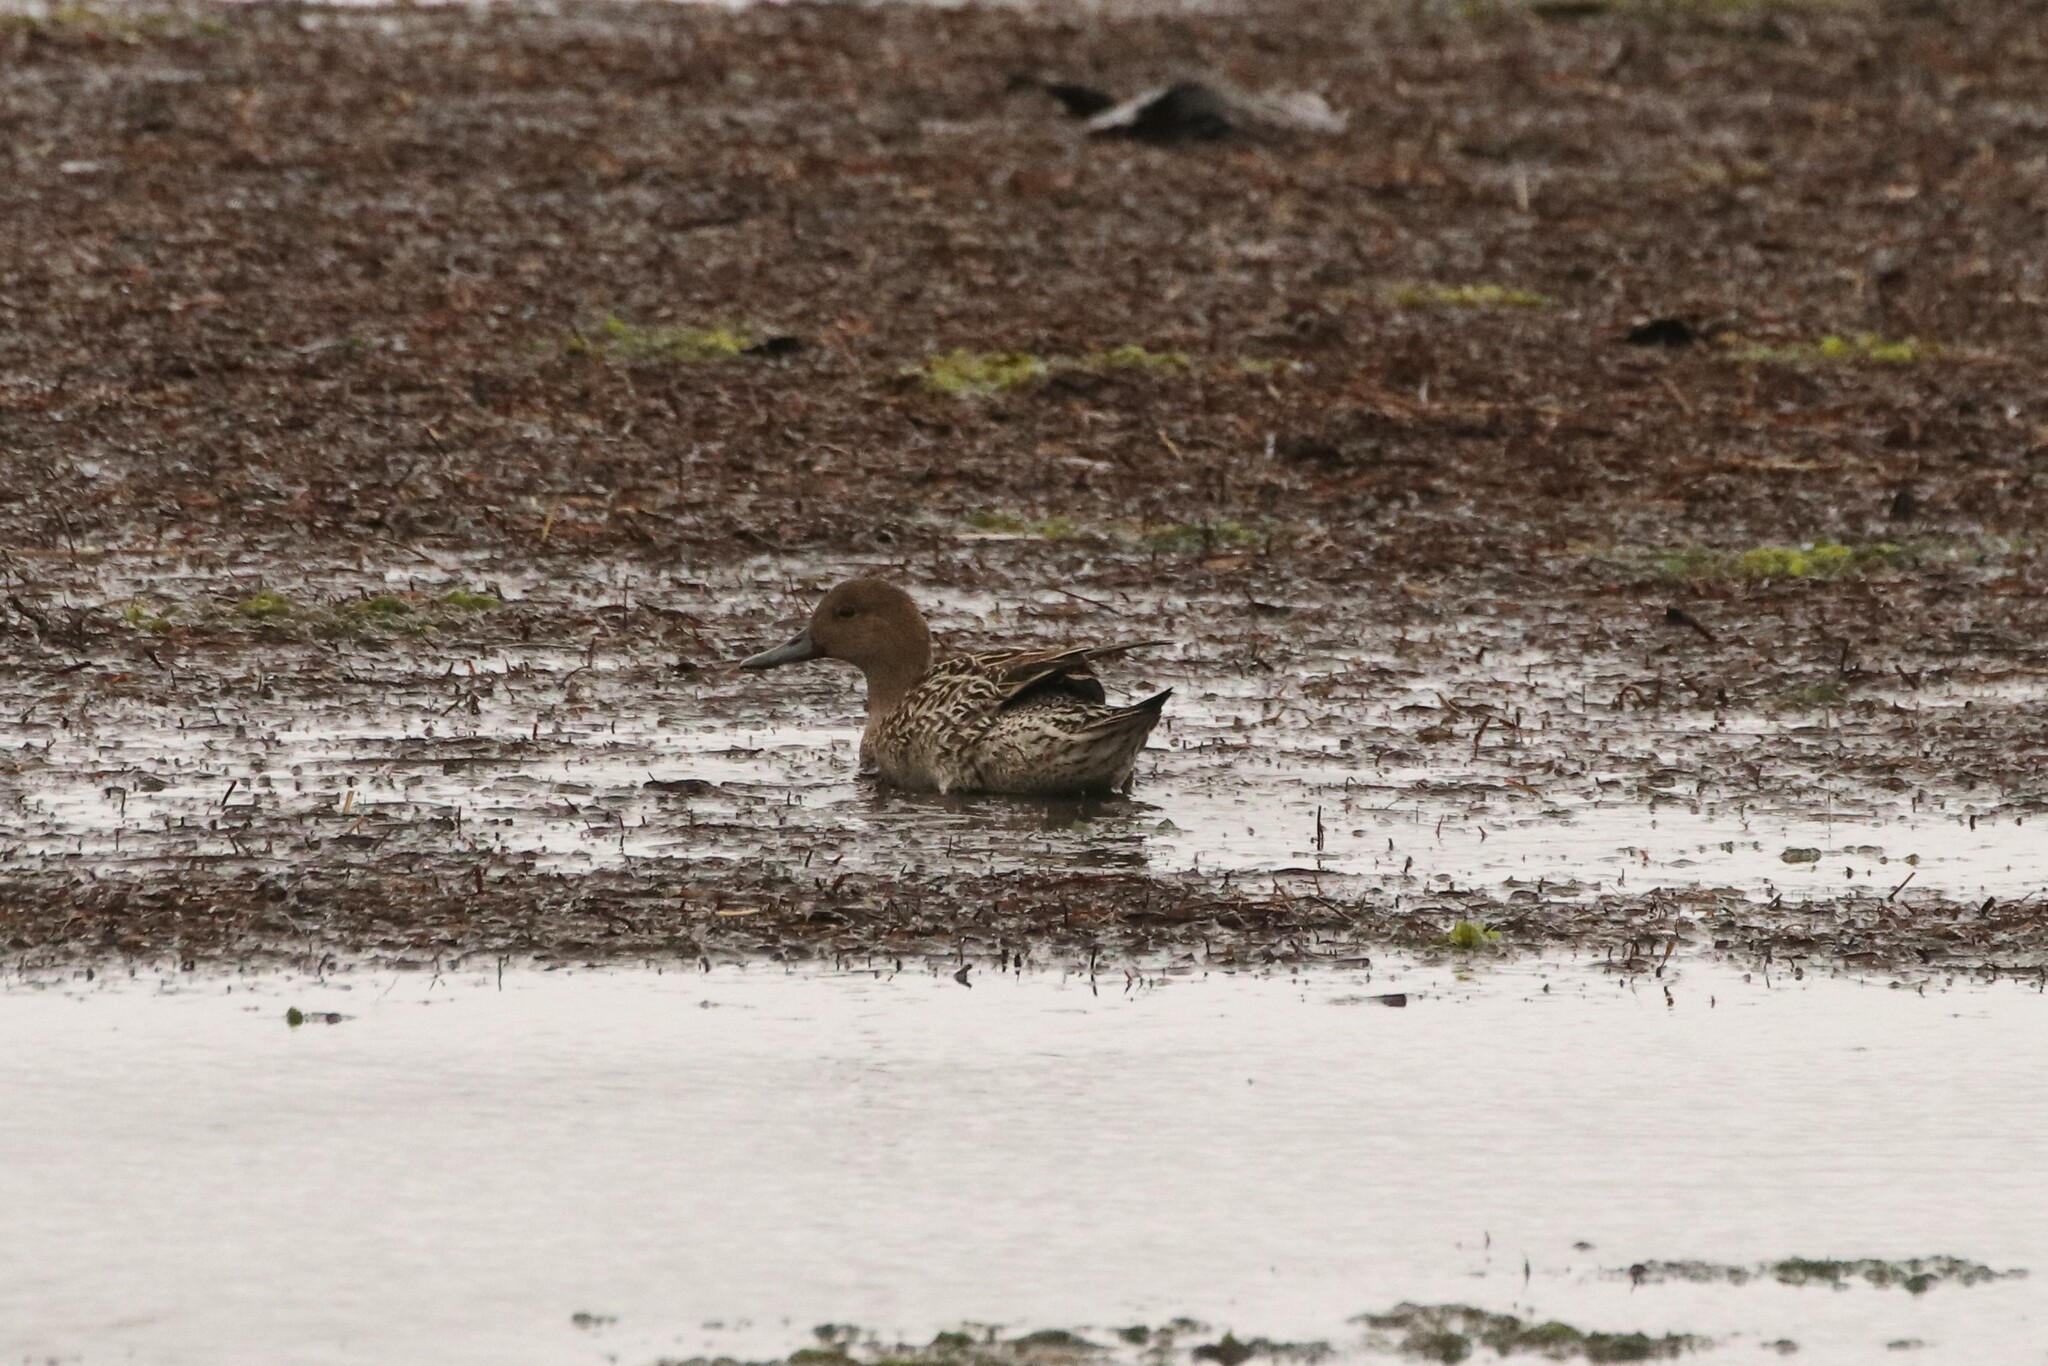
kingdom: Animalia
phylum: Chordata
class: Aves
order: Anseriformes
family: Anatidae
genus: Anas
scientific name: Anas acuta
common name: Northern pintail
